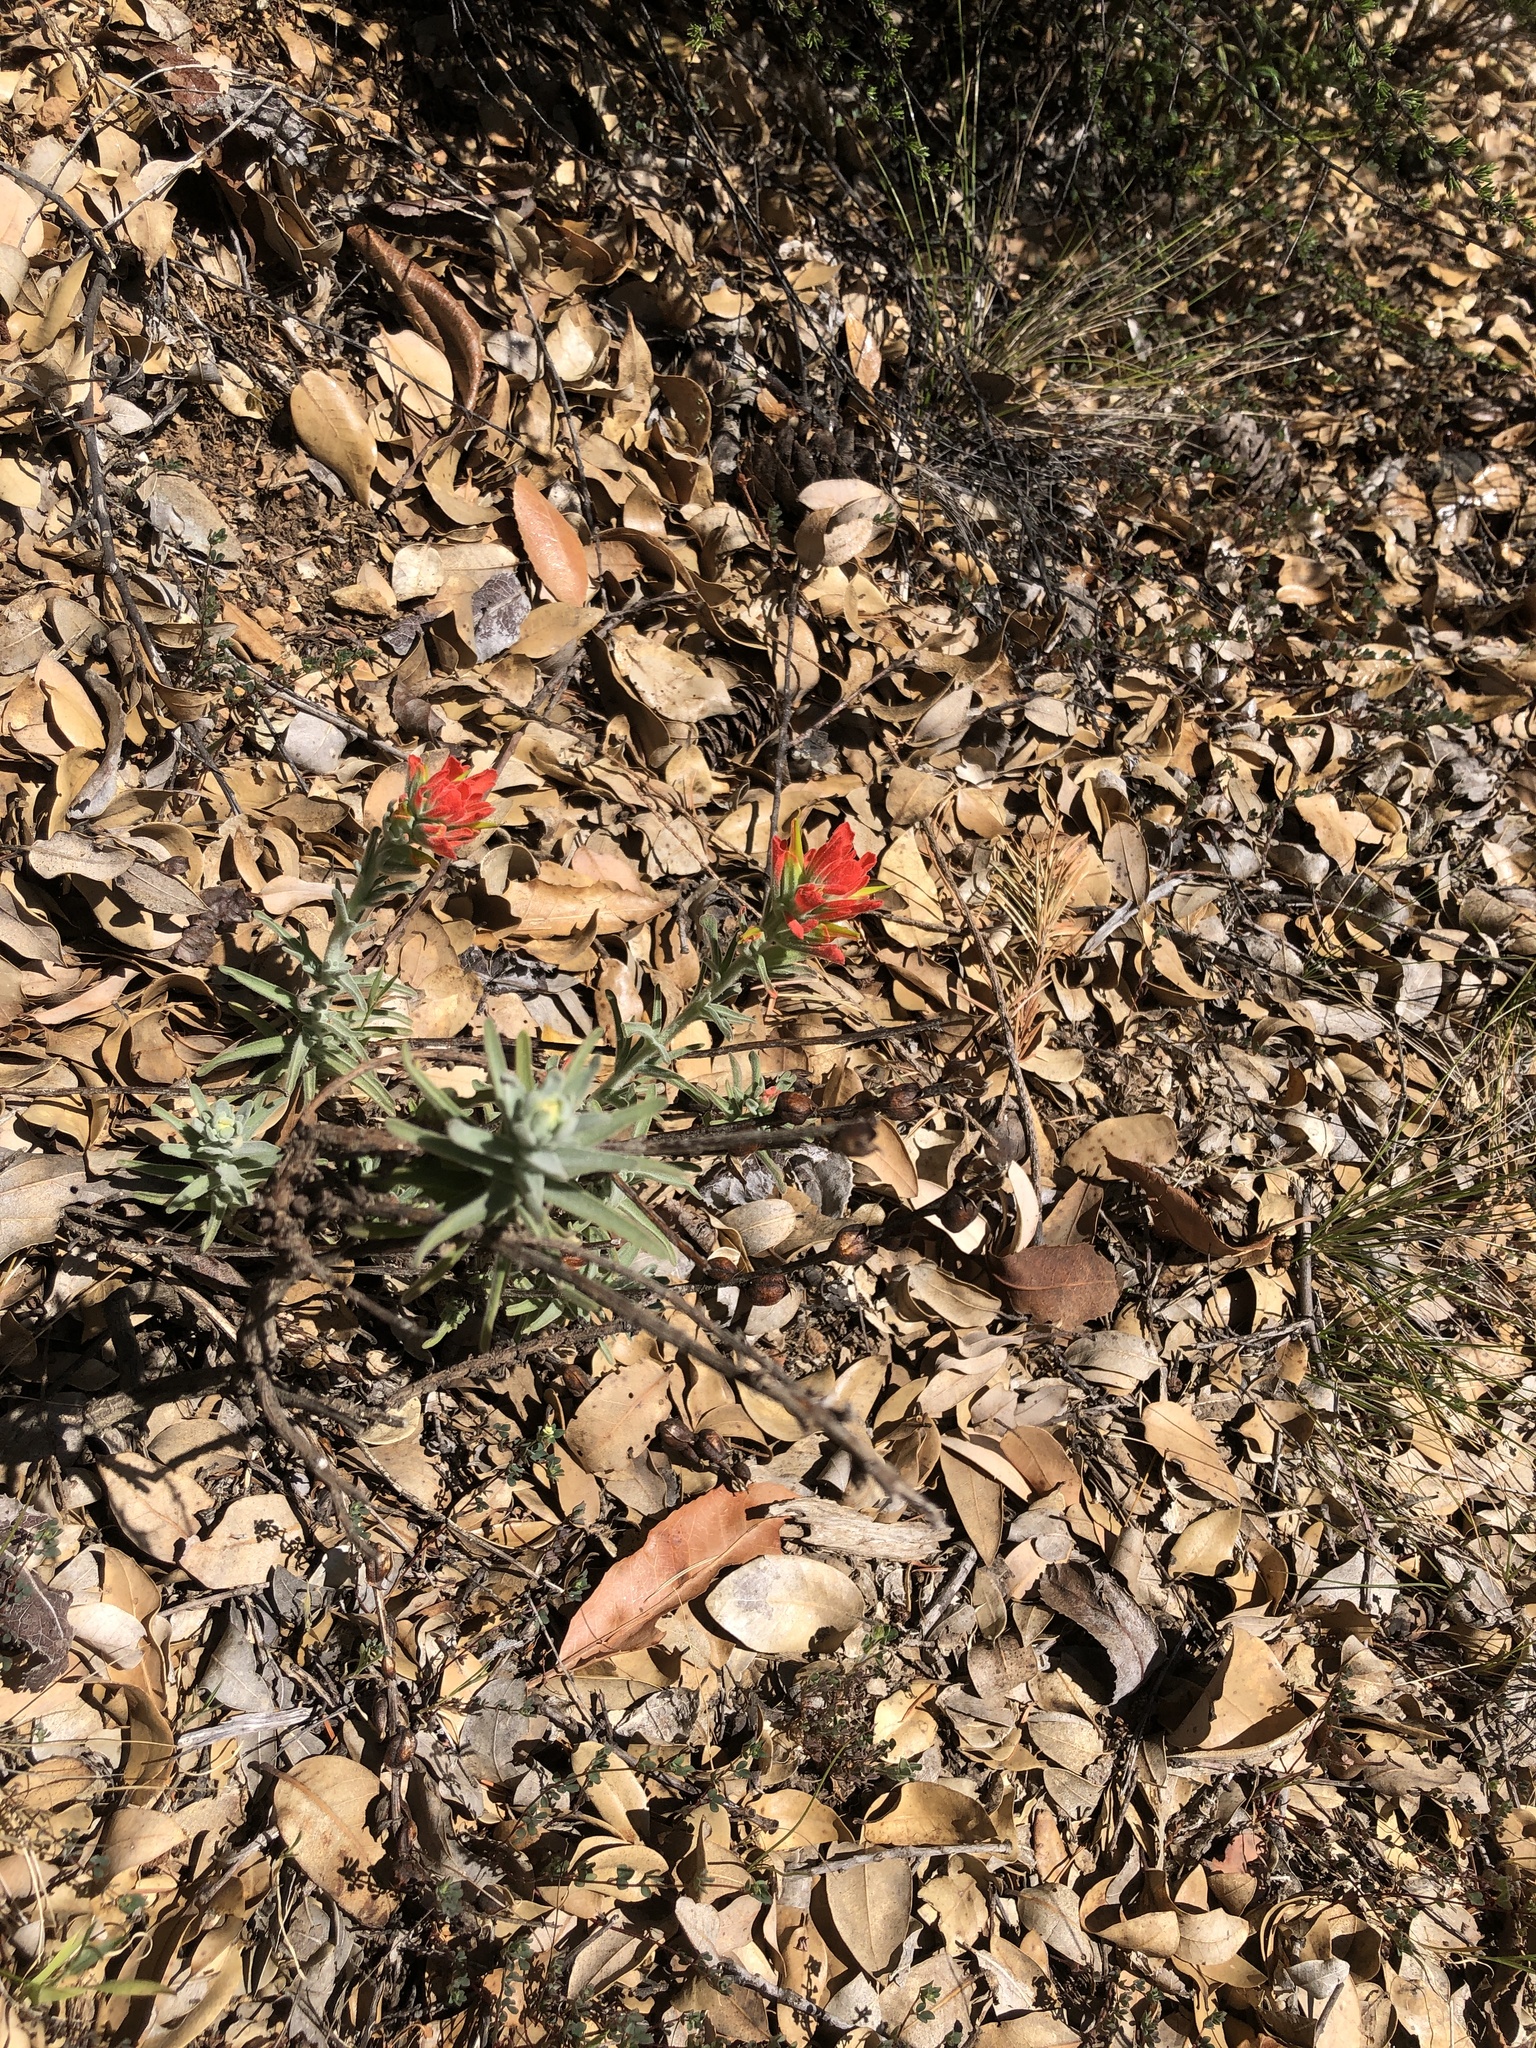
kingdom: Plantae
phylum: Tracheophyta
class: Magnoliopsida
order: Lamiales
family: Orobanchaceae
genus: Castilleja
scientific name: Castilleja foliolosa
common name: Woolly indian paintbrush
